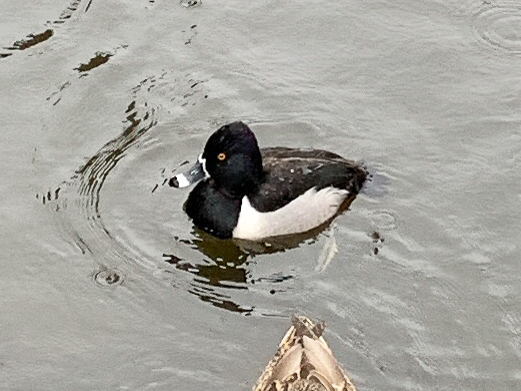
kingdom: Animalia
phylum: Chordata
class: Aves
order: Anseriformes
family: Anatidae
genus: Aythya
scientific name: Aythya collaris
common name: Ring-necked duck
